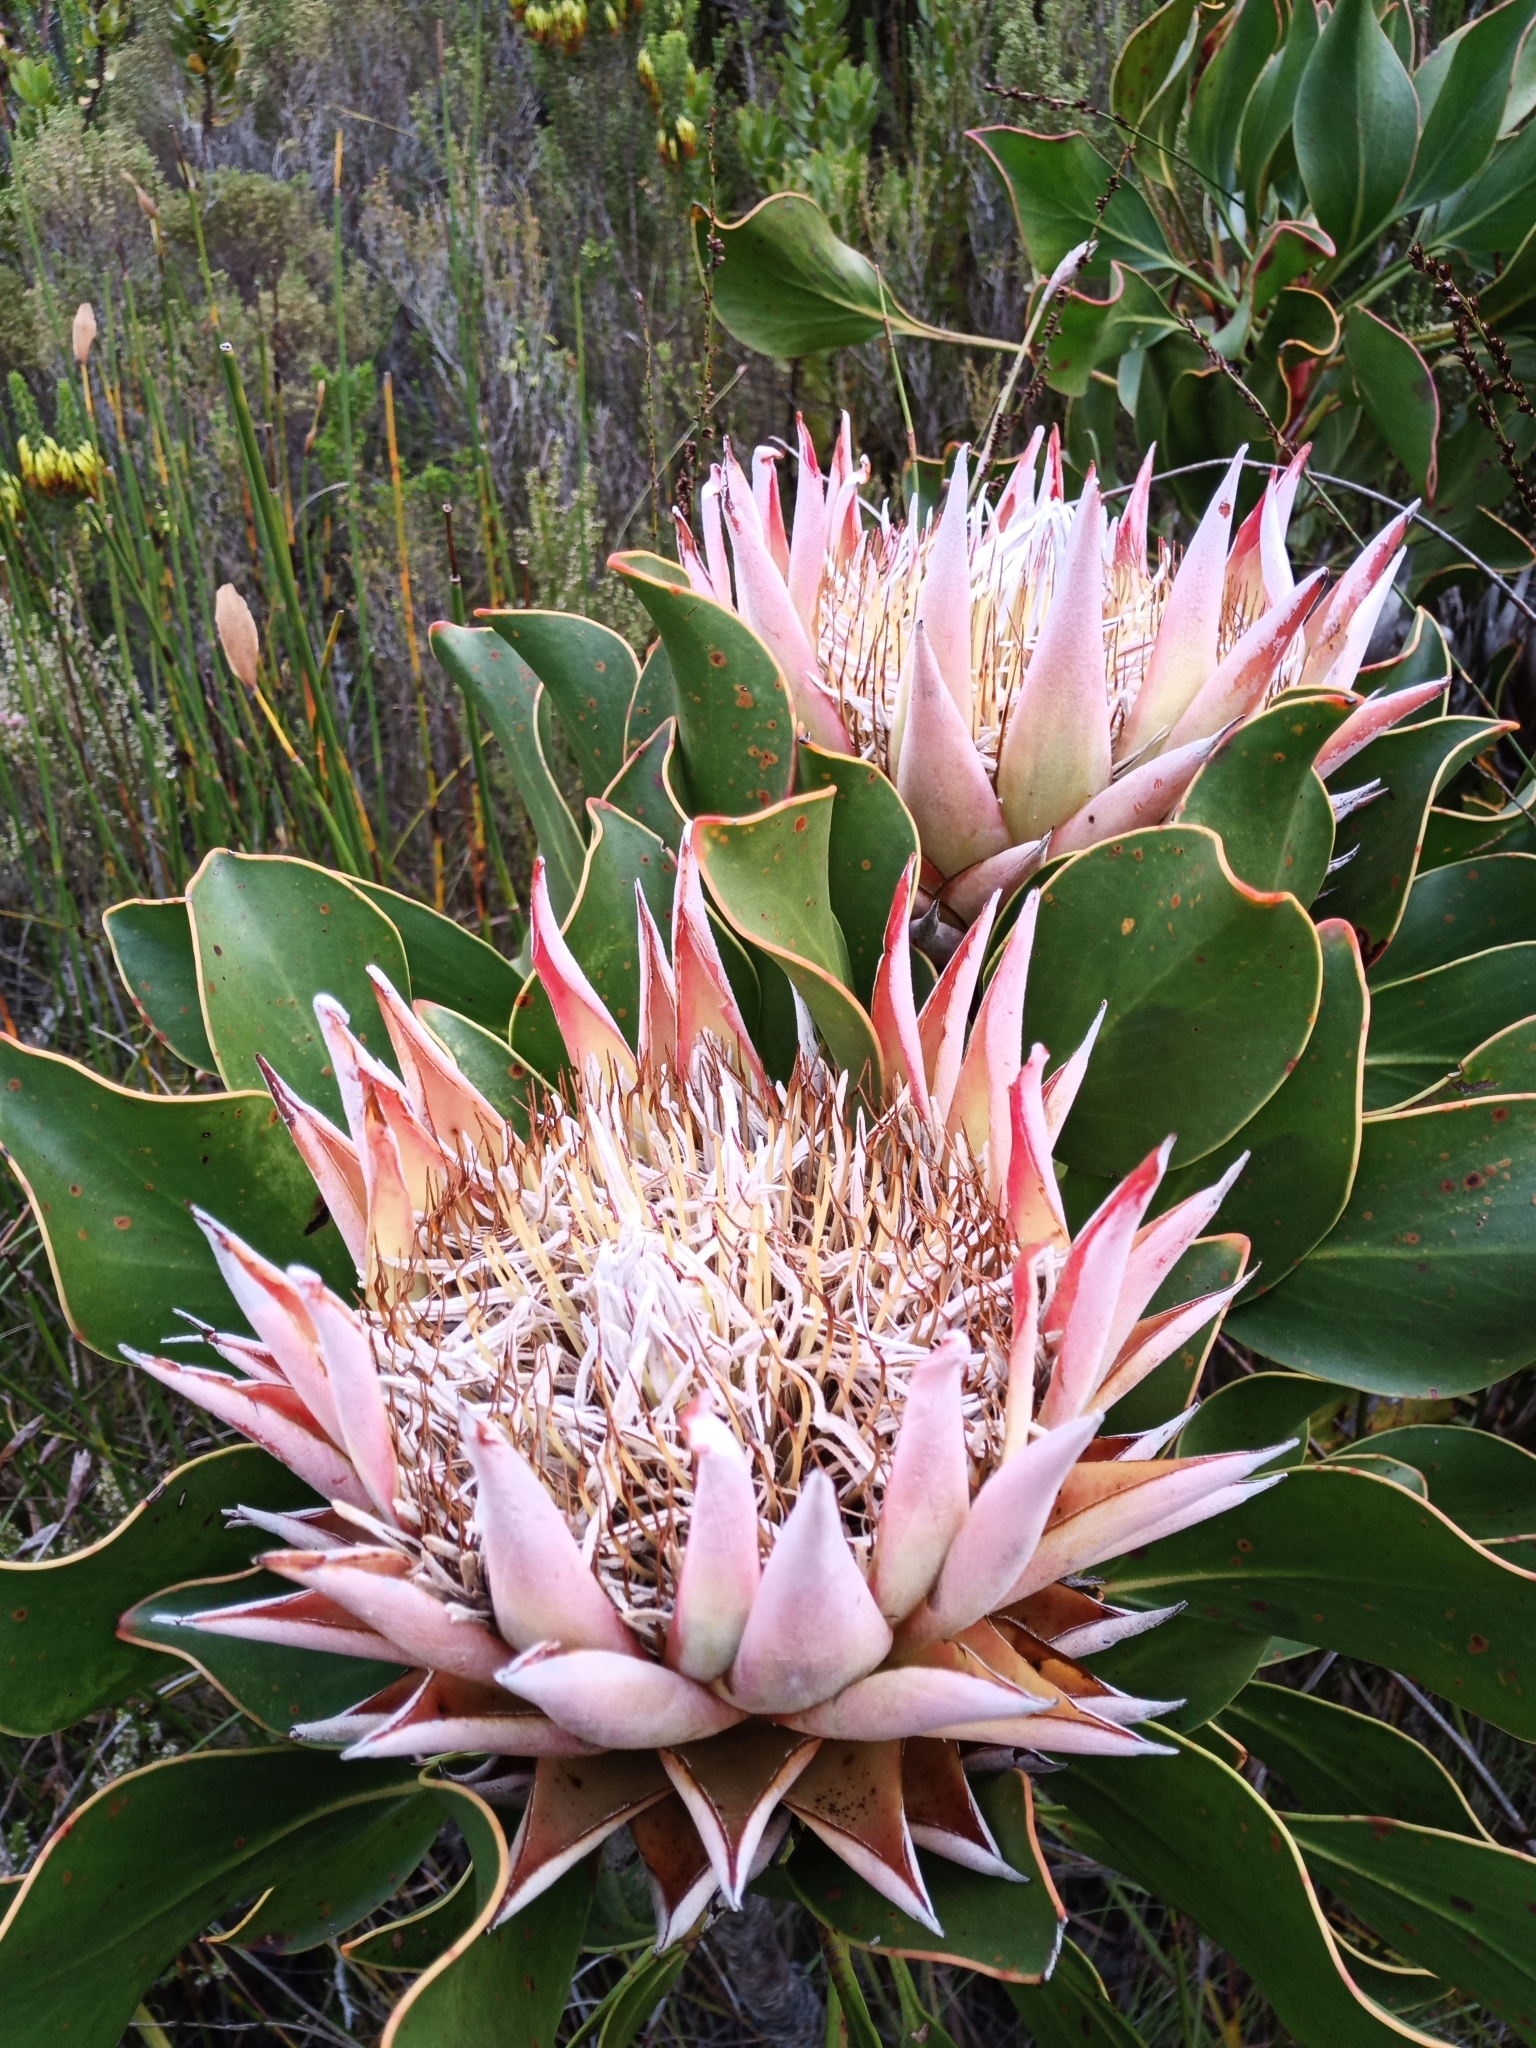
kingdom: Plantae
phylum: Tracheophyta
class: Magnoliopsida
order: Proteales
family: Proteaceae
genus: Protea
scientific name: Protea cynaroides
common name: King protea
